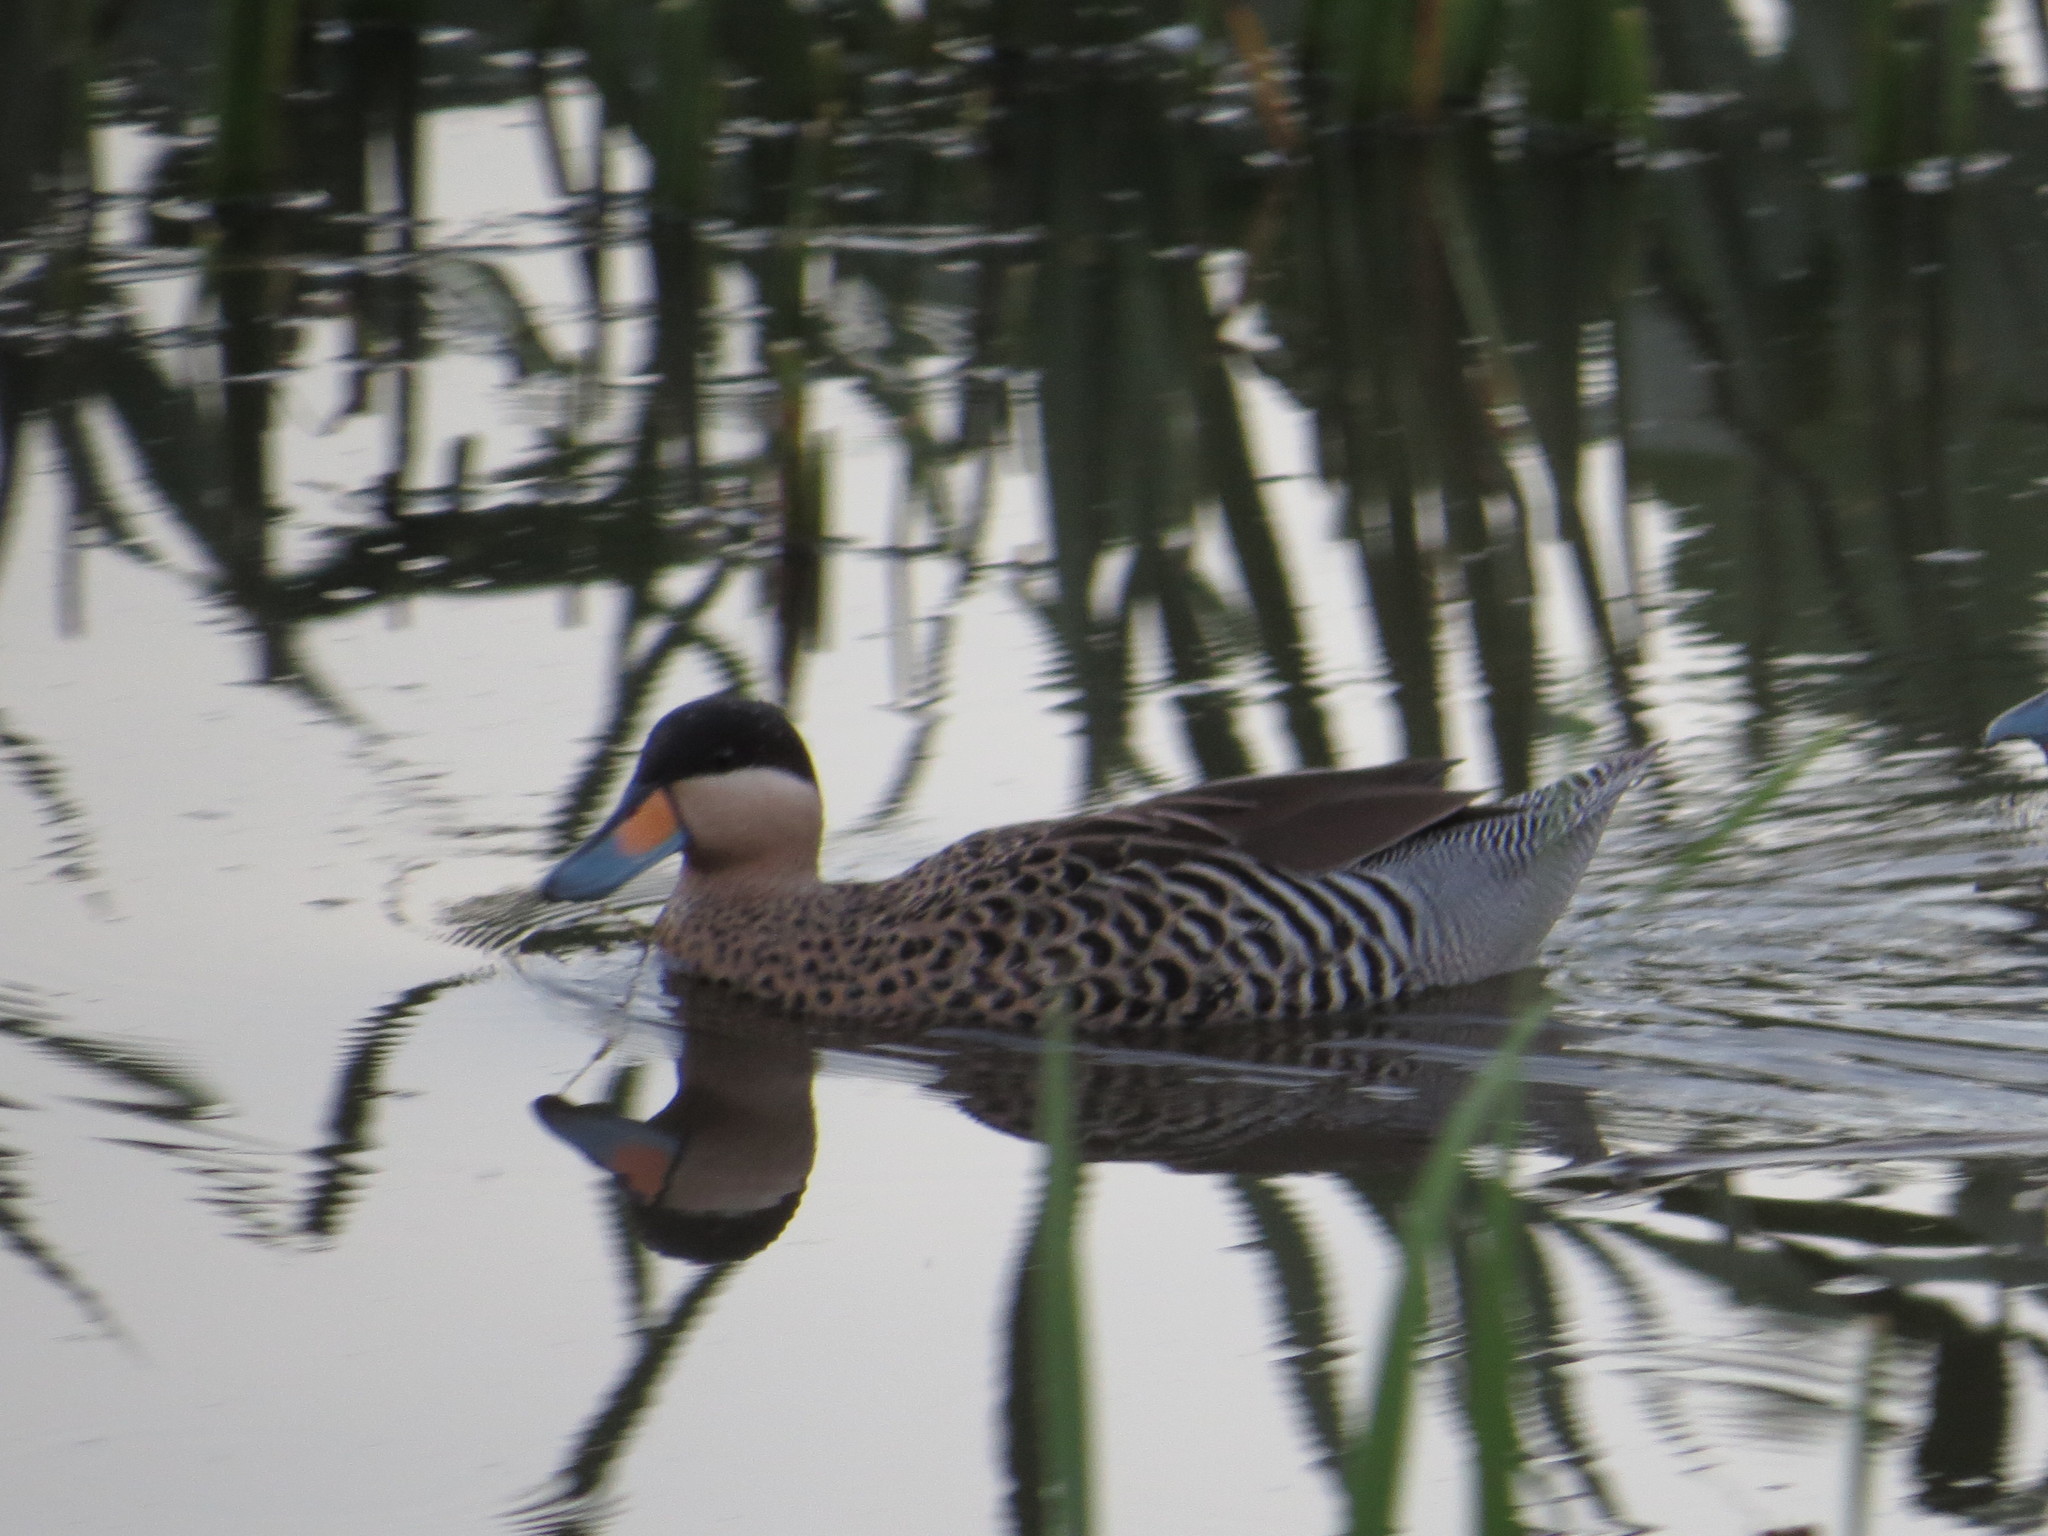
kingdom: Animalia
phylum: Chordata
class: Aves
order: Anseriformes
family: Anatidae
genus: Spatula
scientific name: Spatula versicolor
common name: Silver teal
